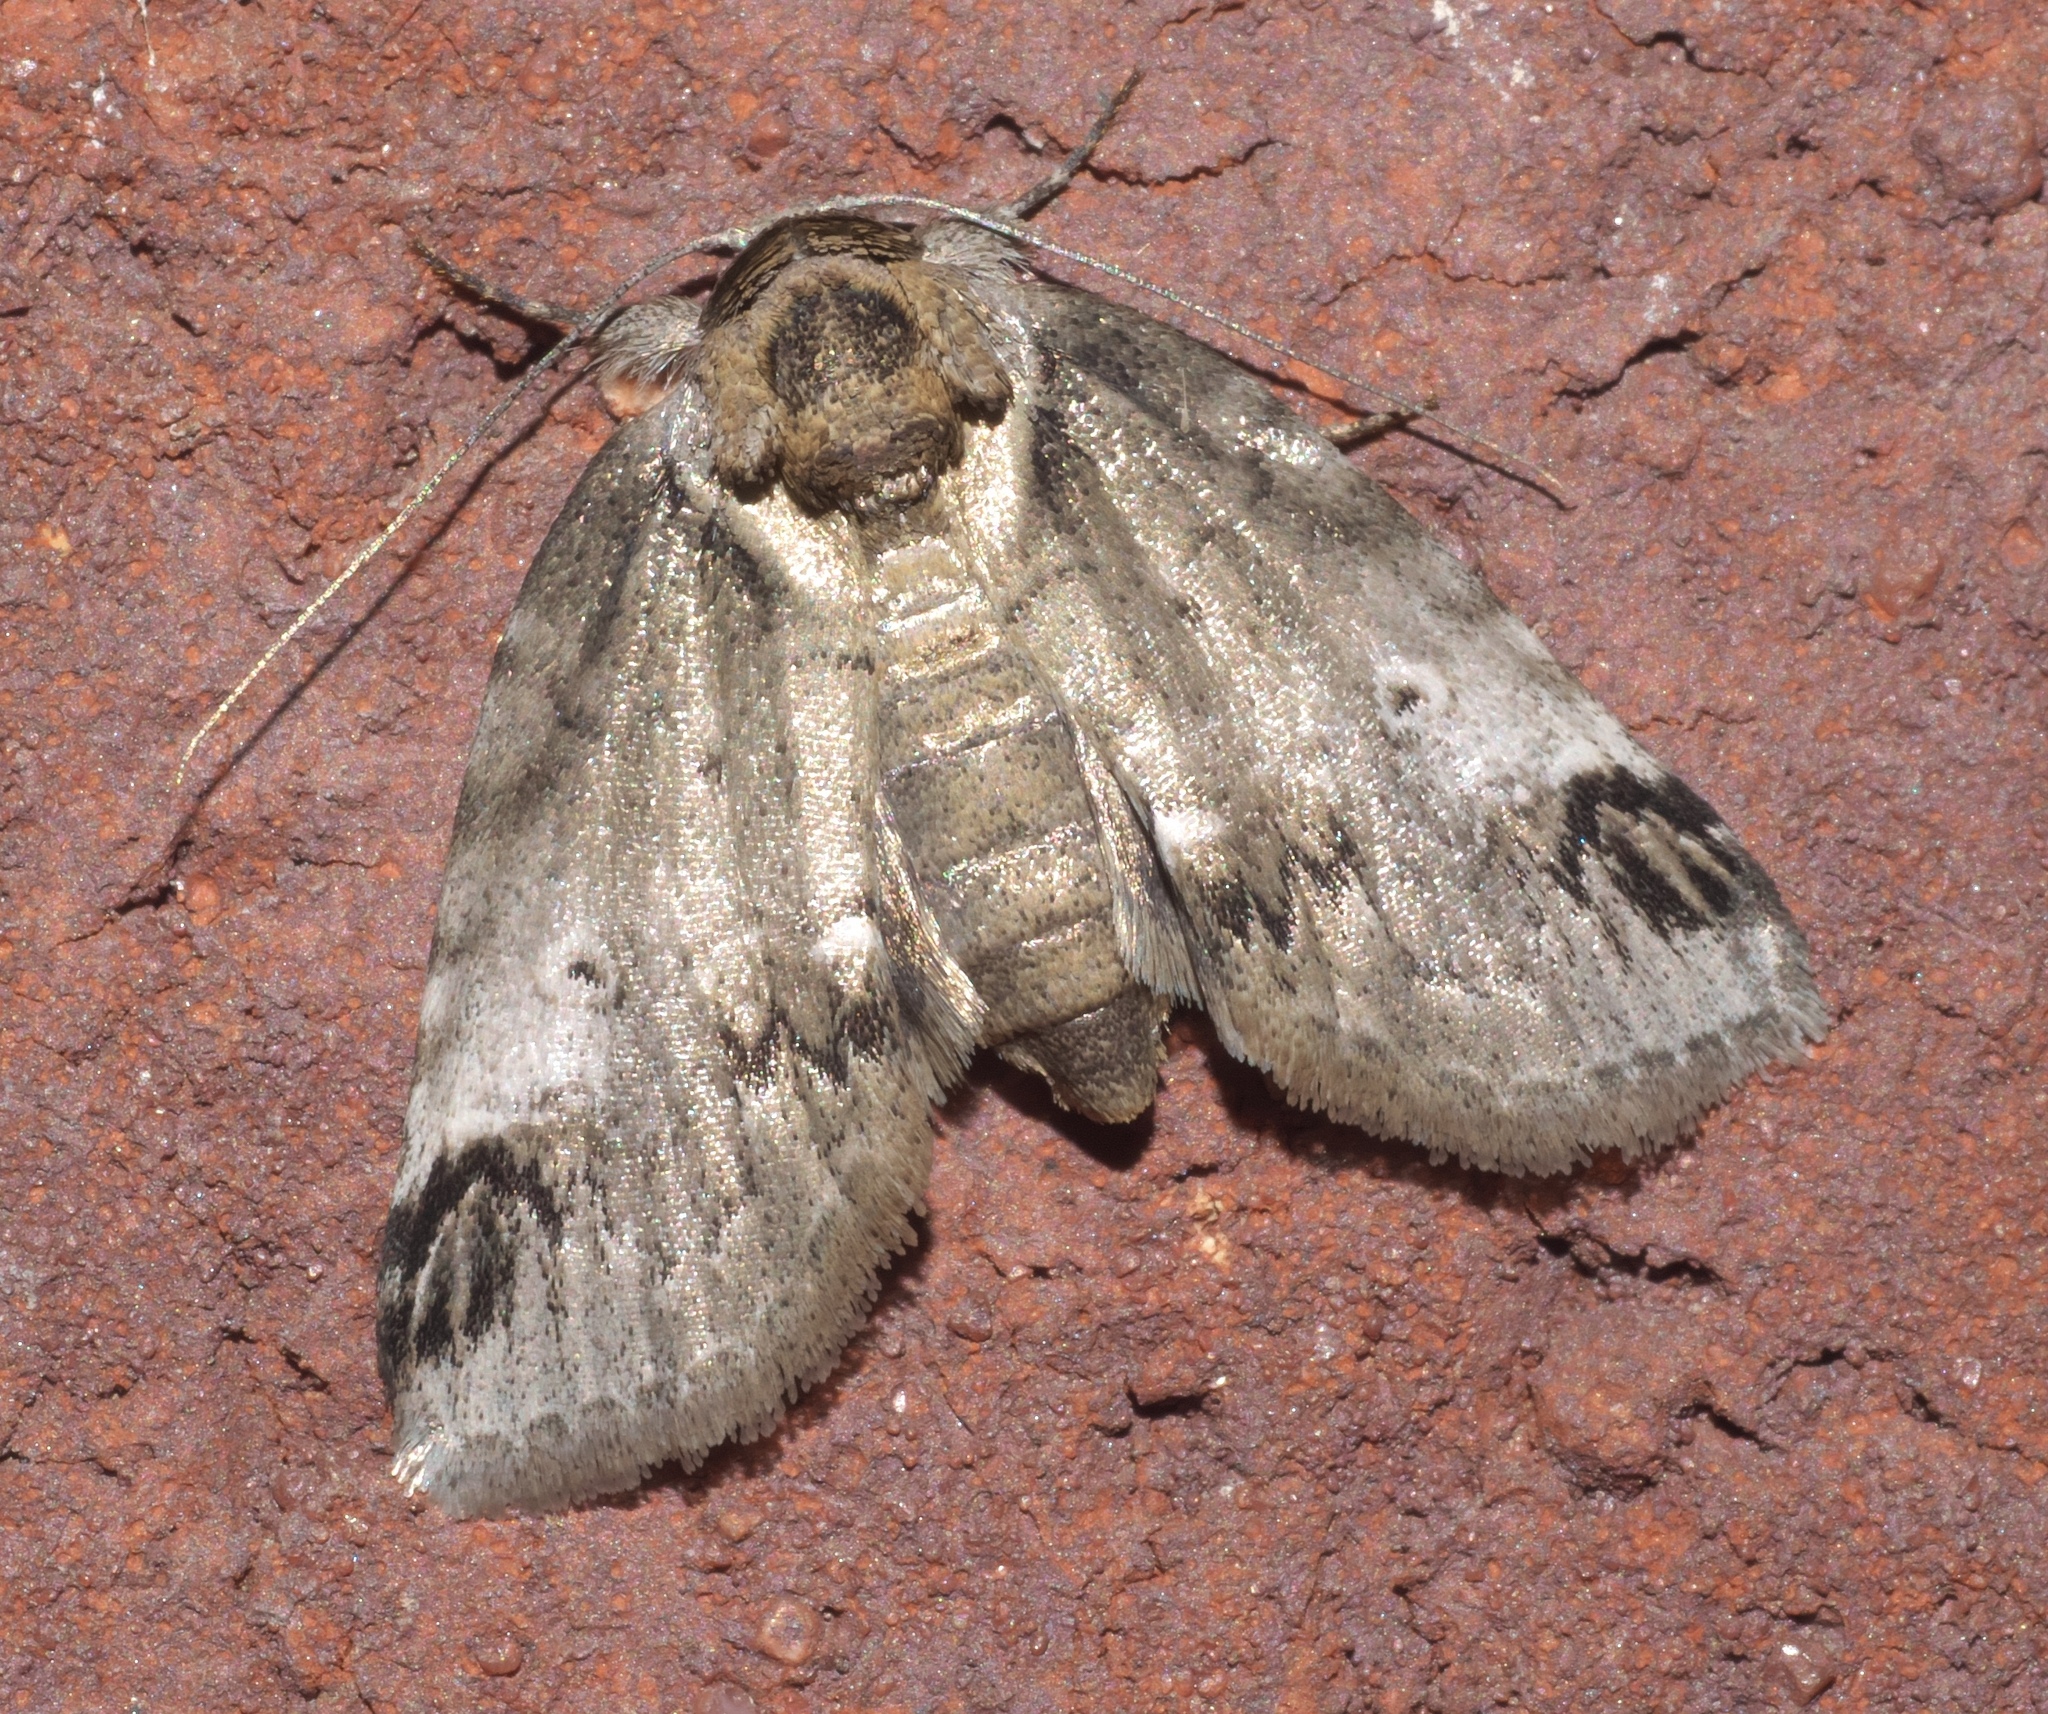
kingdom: Animalia
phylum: Arthropoda
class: Insecta
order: Lepidoptera
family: Nolidae
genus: Baileya
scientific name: Baileya dormitans
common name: Sleeping baileya moth
